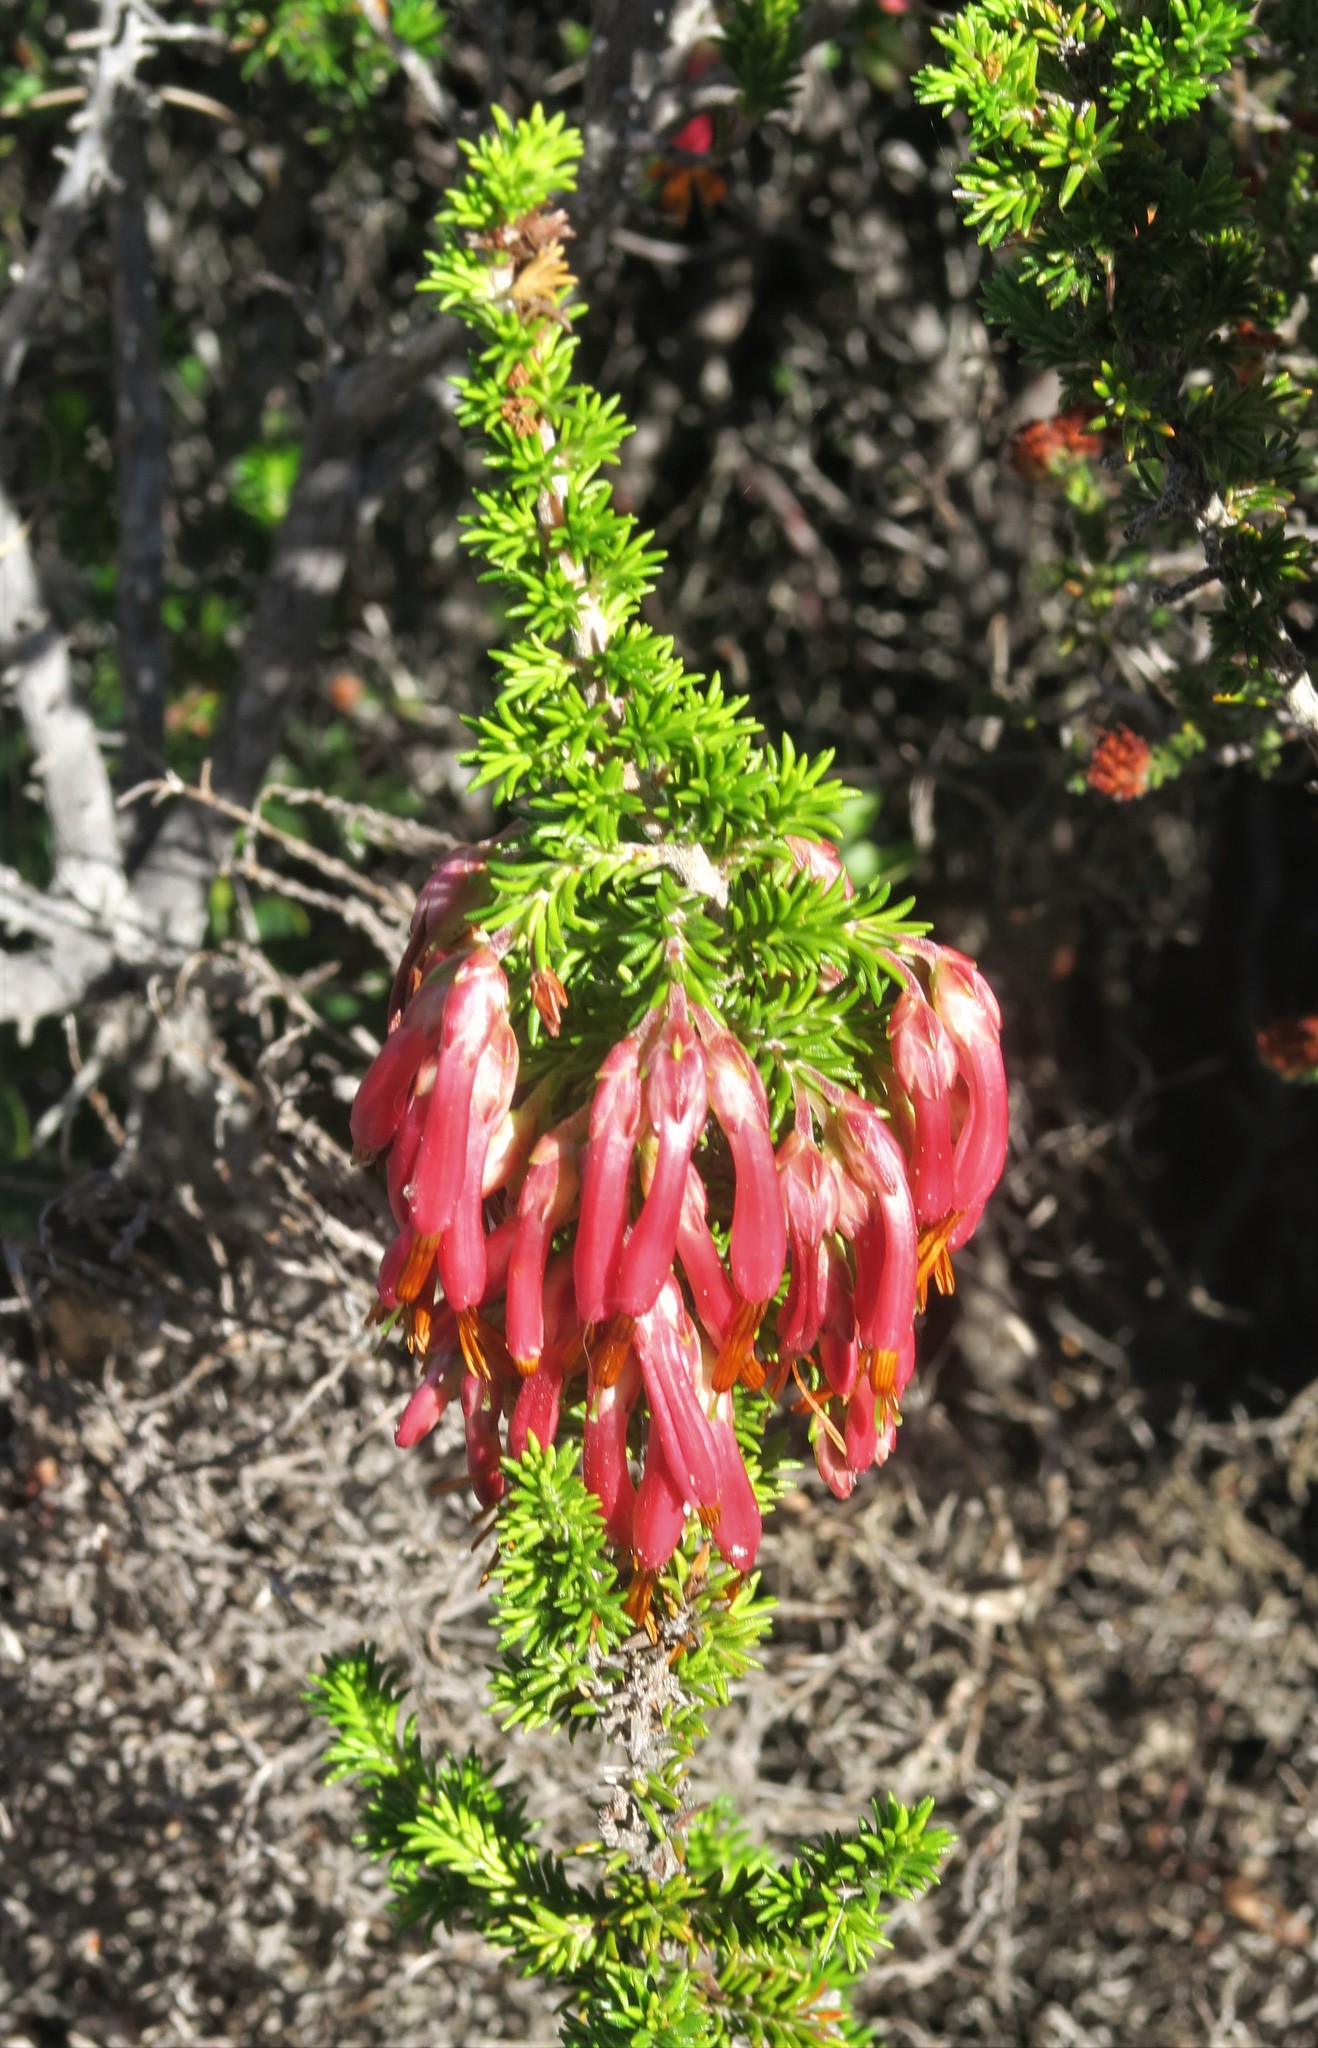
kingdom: Plantae
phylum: Tracheophyta
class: Magnoliopsida
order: Ericales
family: Ericaceae
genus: Erica
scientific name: Erica coccinea
